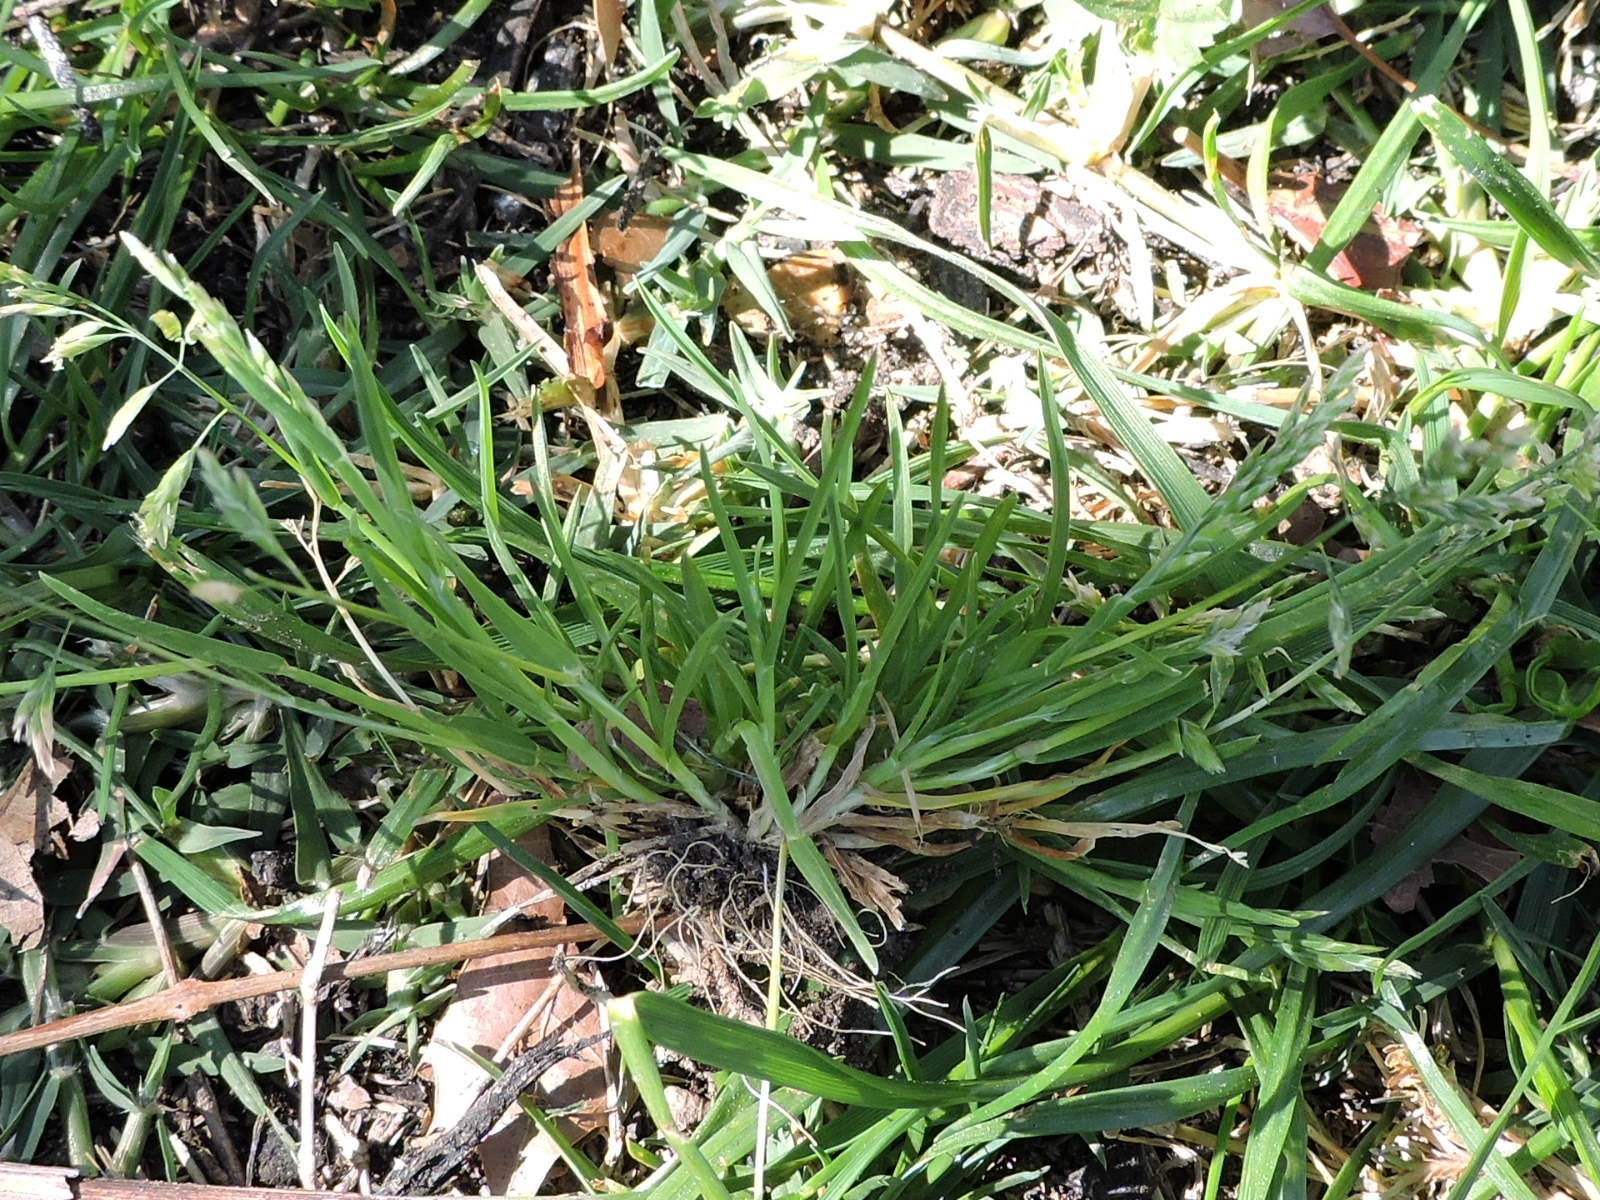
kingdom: Plantae
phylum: Tracheophyta
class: Liliopsida
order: Poales
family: Poaceae
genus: Poa
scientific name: Poa annua
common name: Annual bluegrass
